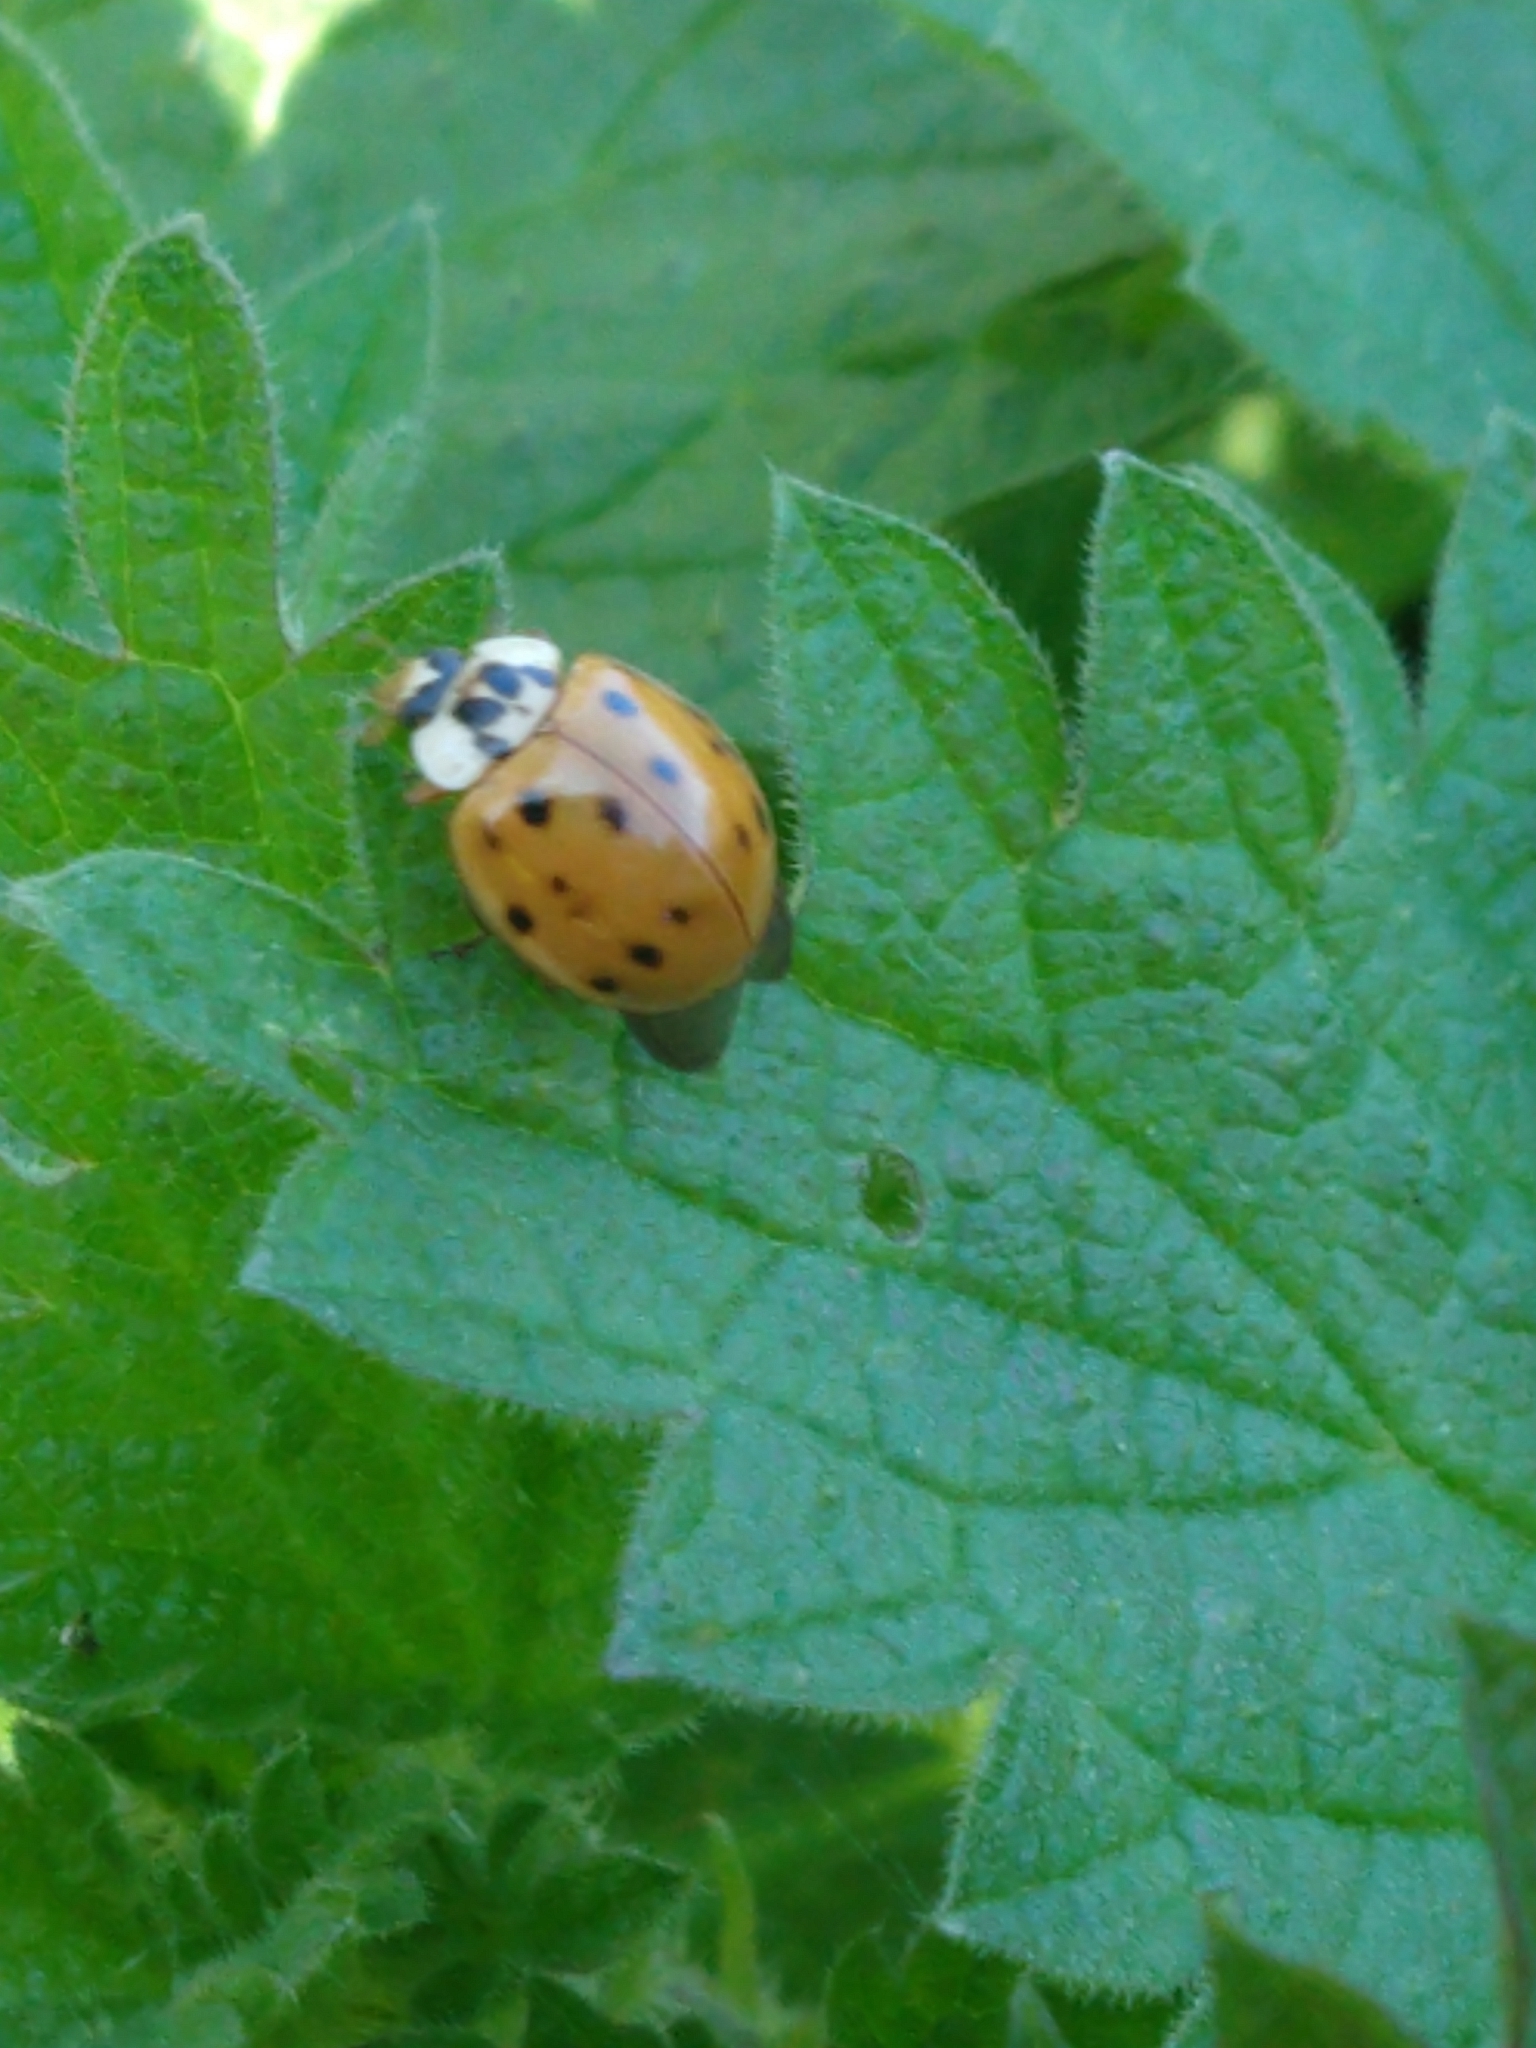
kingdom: Animalia
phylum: Arthropoda
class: Insecta
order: Coleoptera
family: Coccinellidae
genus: Harmonia
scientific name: Harmonia axyridis
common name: Harlequin ladybird
